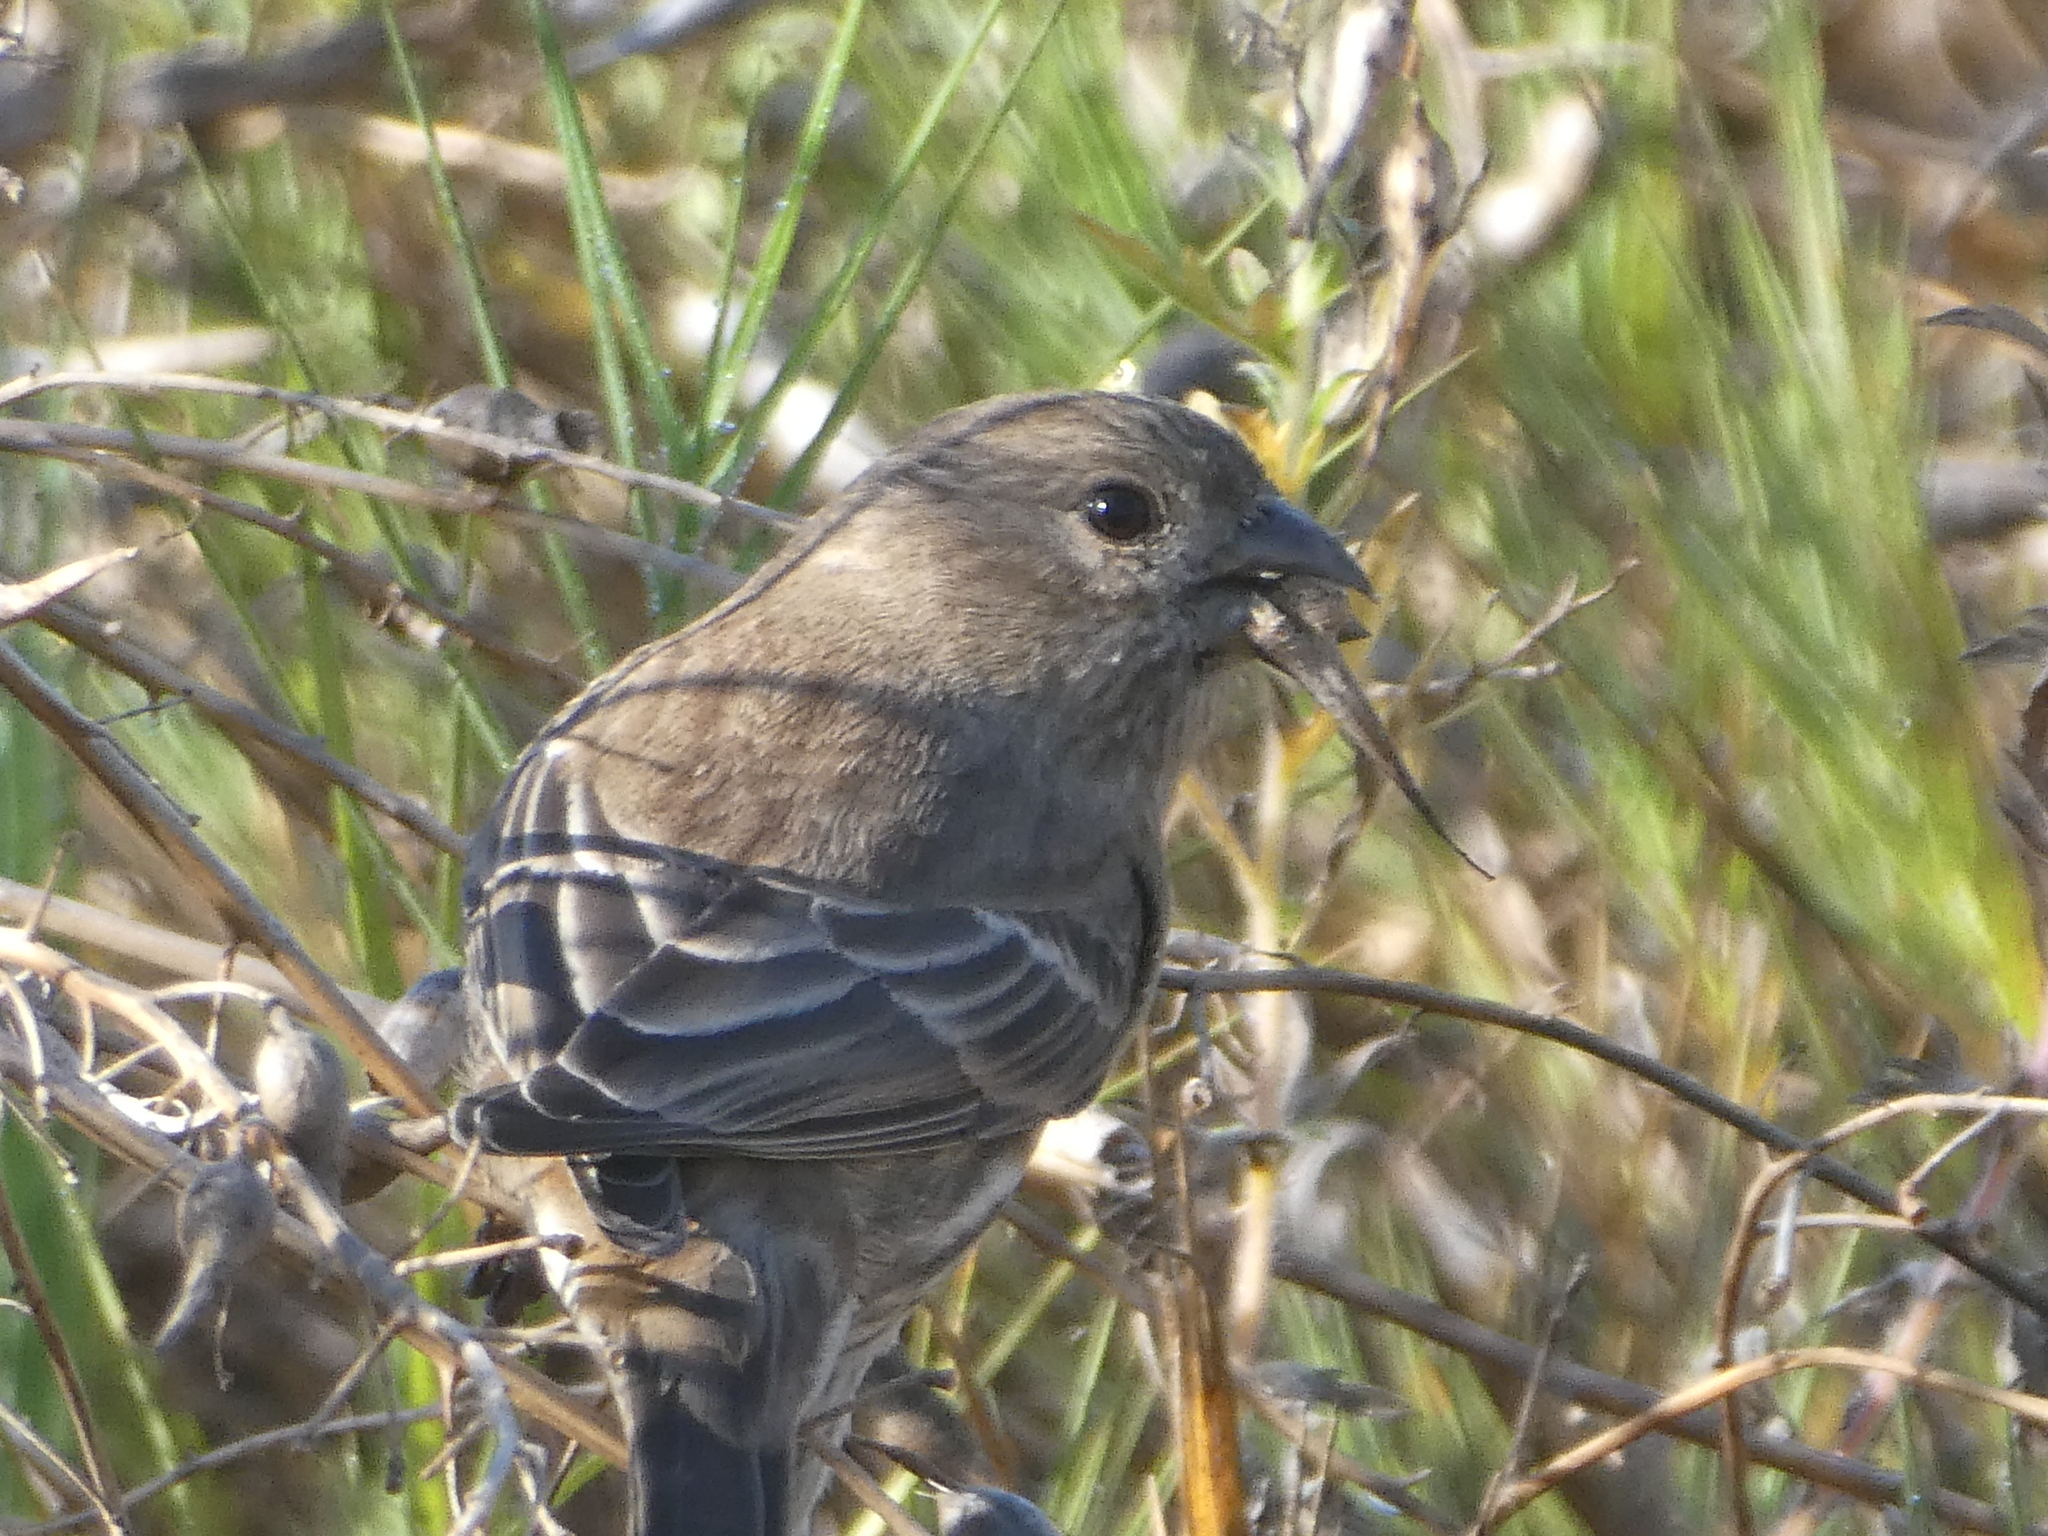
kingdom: Animalia
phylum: Chordata
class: Aves
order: Passeriformes
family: Fringillidae
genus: Haemorhous
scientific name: Haemorhous mexicanus
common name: House finch
